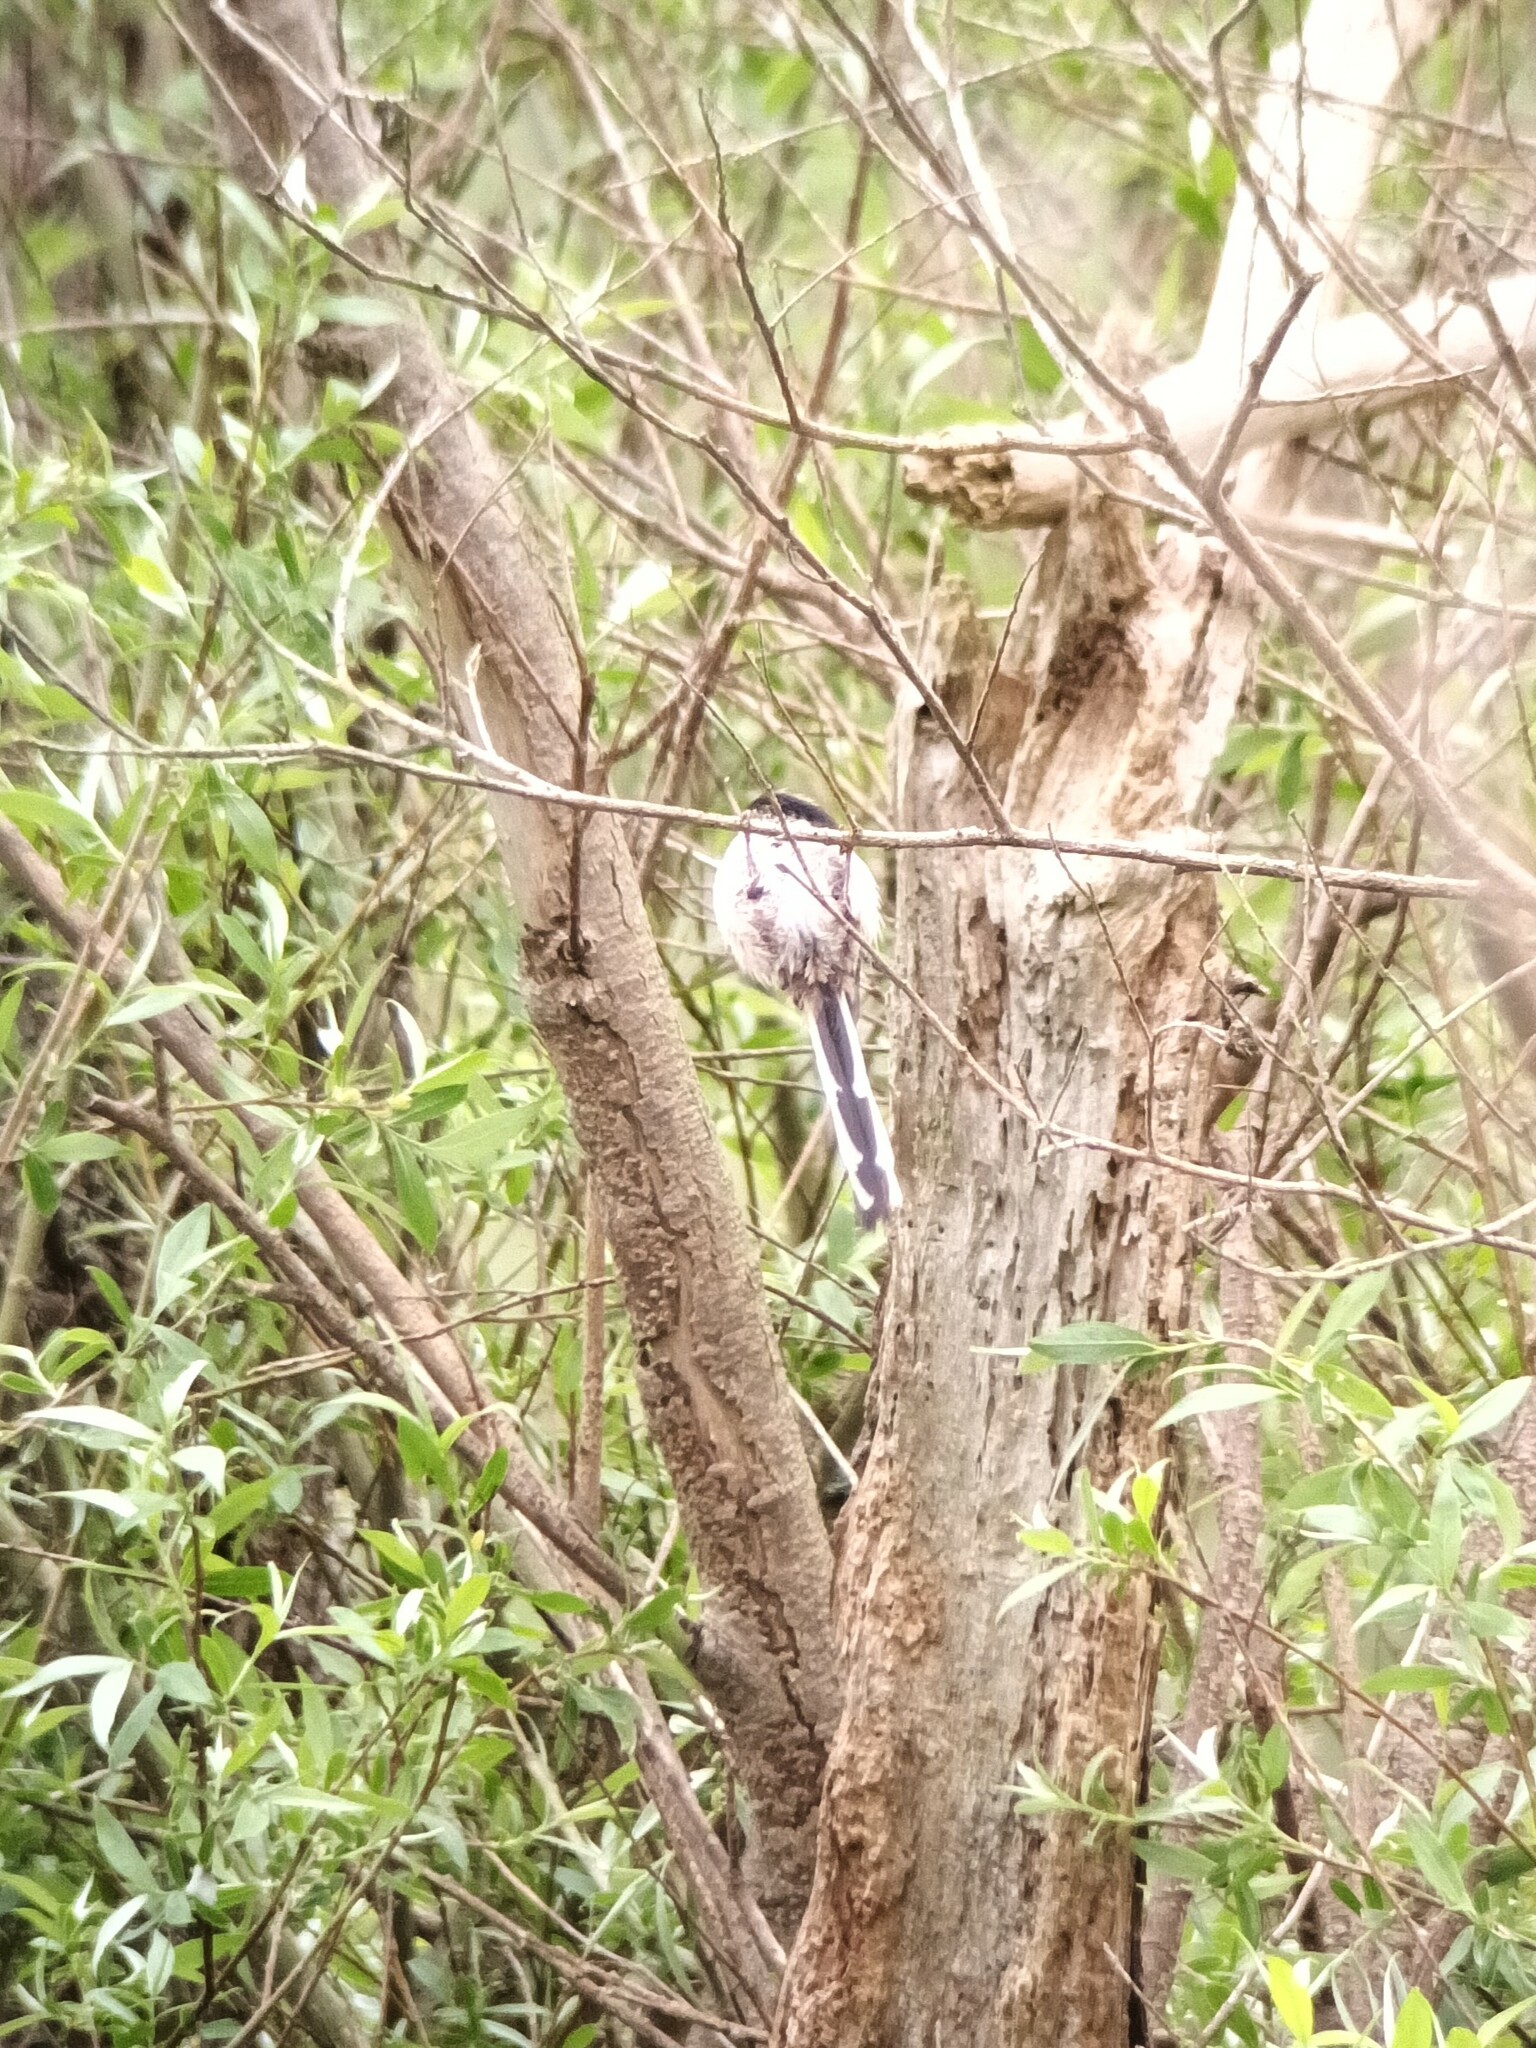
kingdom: Animalia
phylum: Chordata
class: Aves
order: Passeriformes
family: Aegithalidae
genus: Aegithalos
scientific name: Aegithalos caudatus
